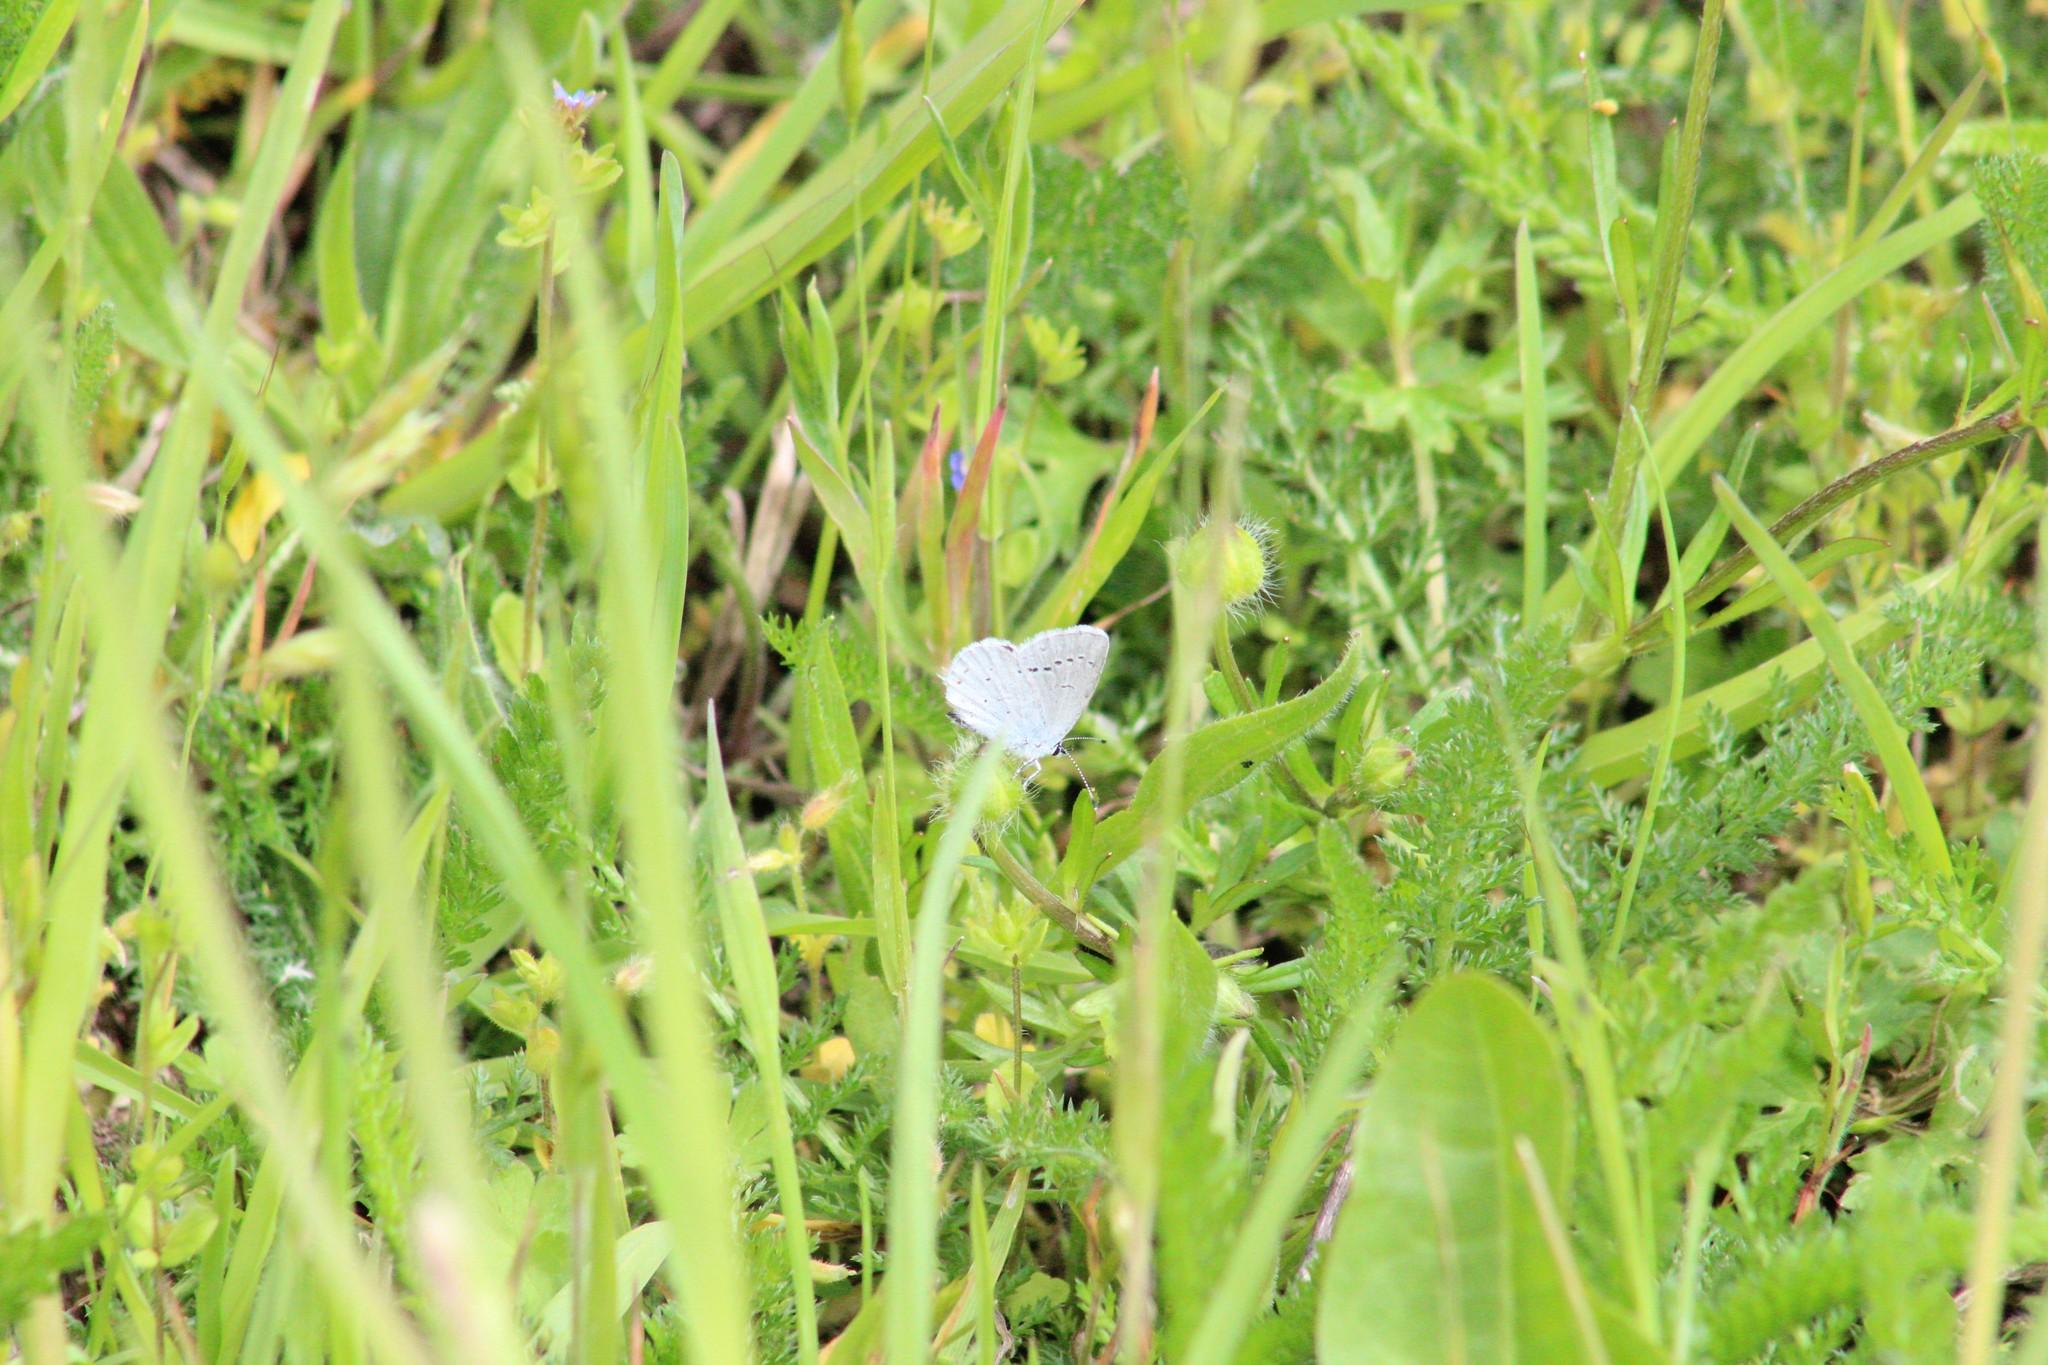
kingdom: Animalia
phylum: Arthropoda
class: Insecta
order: Lepidoptera
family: Lycaenidae
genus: Elkalyce
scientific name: Elkalyce argiades
